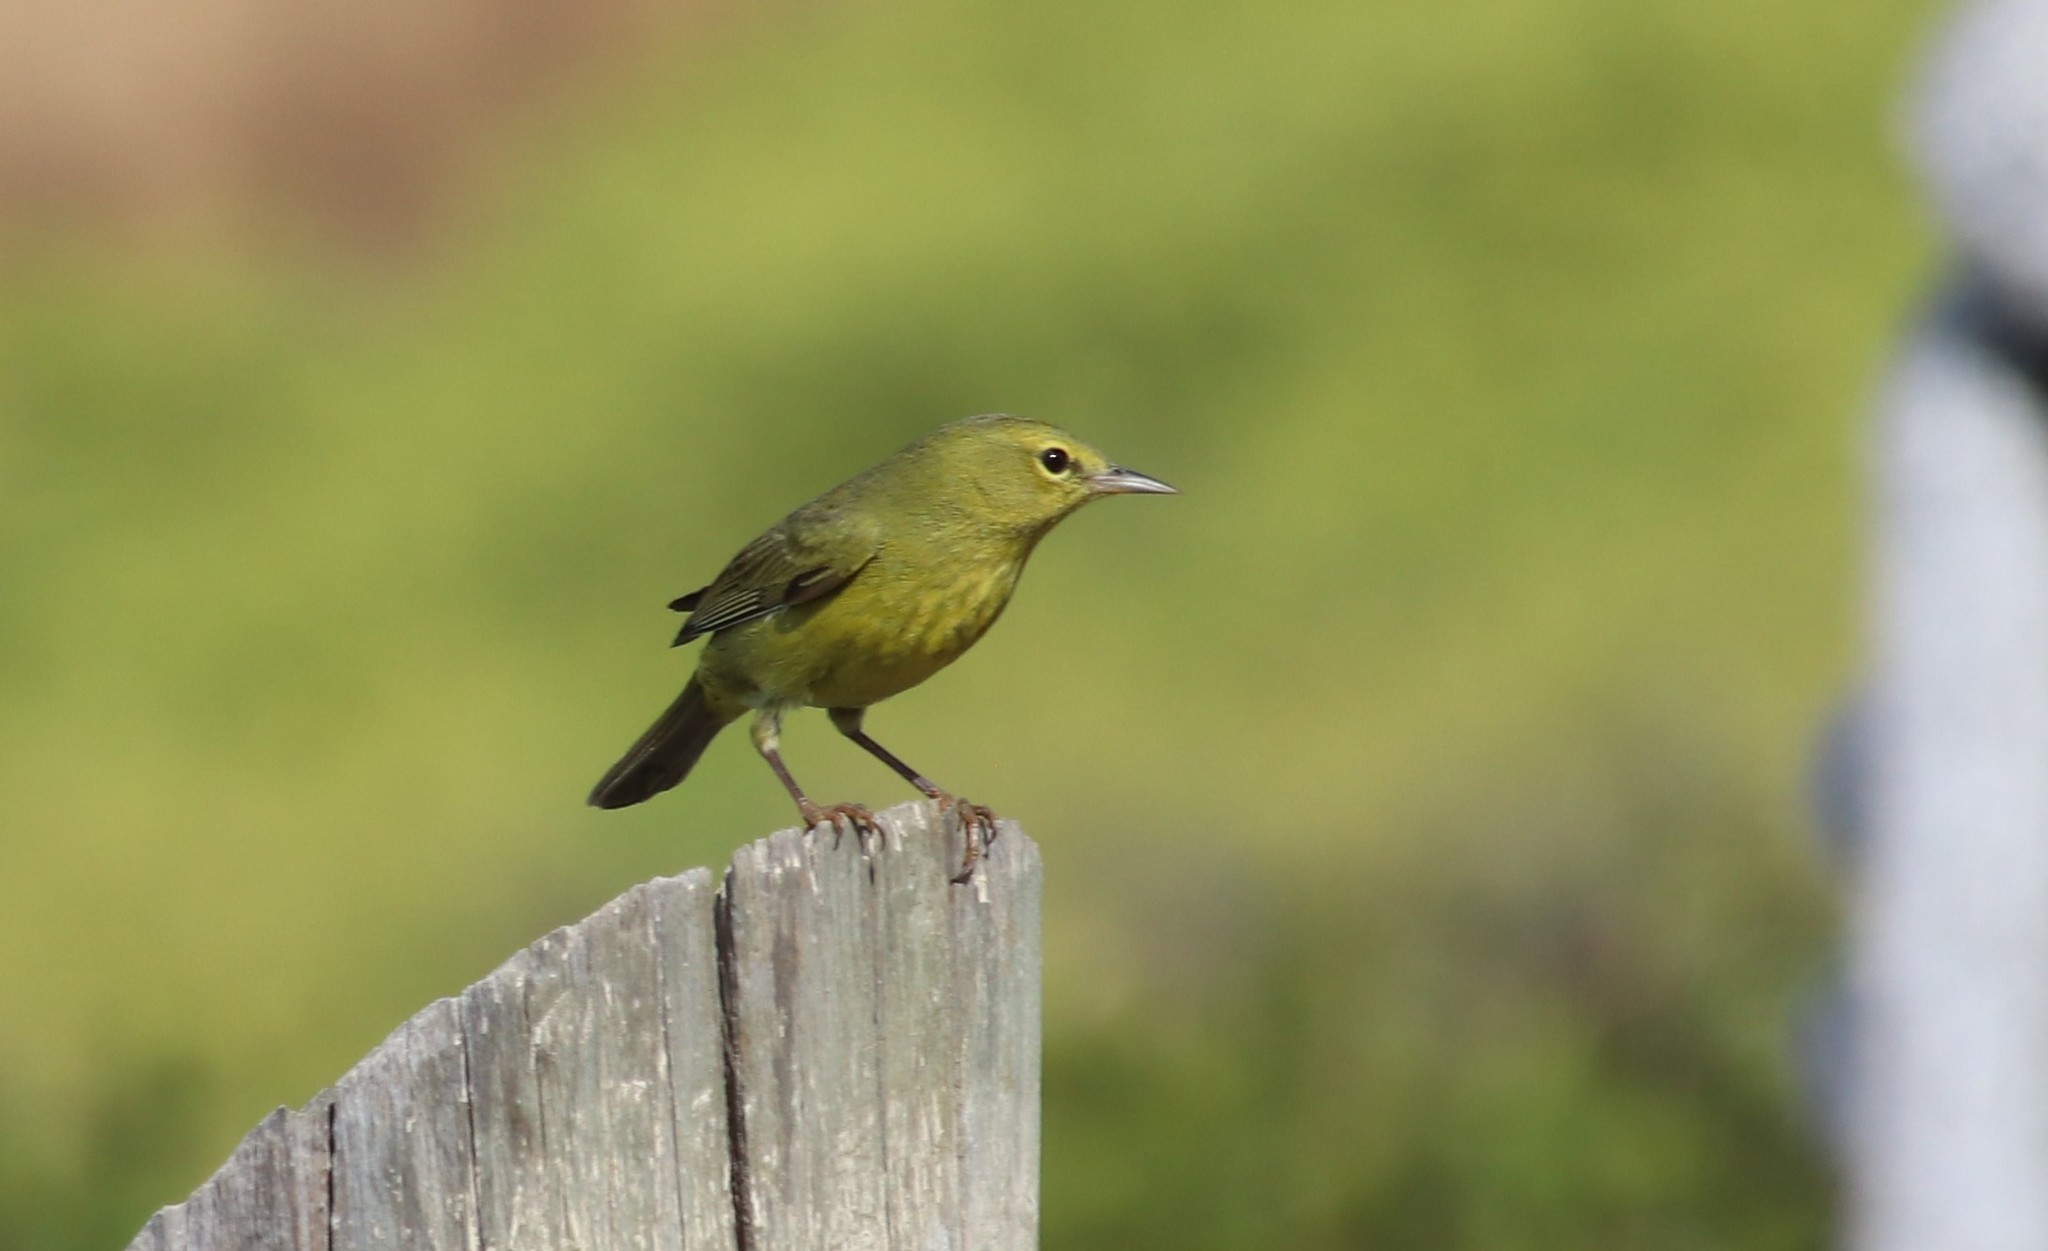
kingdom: Animalia
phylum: Chordata
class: Aves
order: Passeriformes
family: Parulidae
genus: Leiothlypis
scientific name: Leiothlypis celata
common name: Orange-crowned warbler
